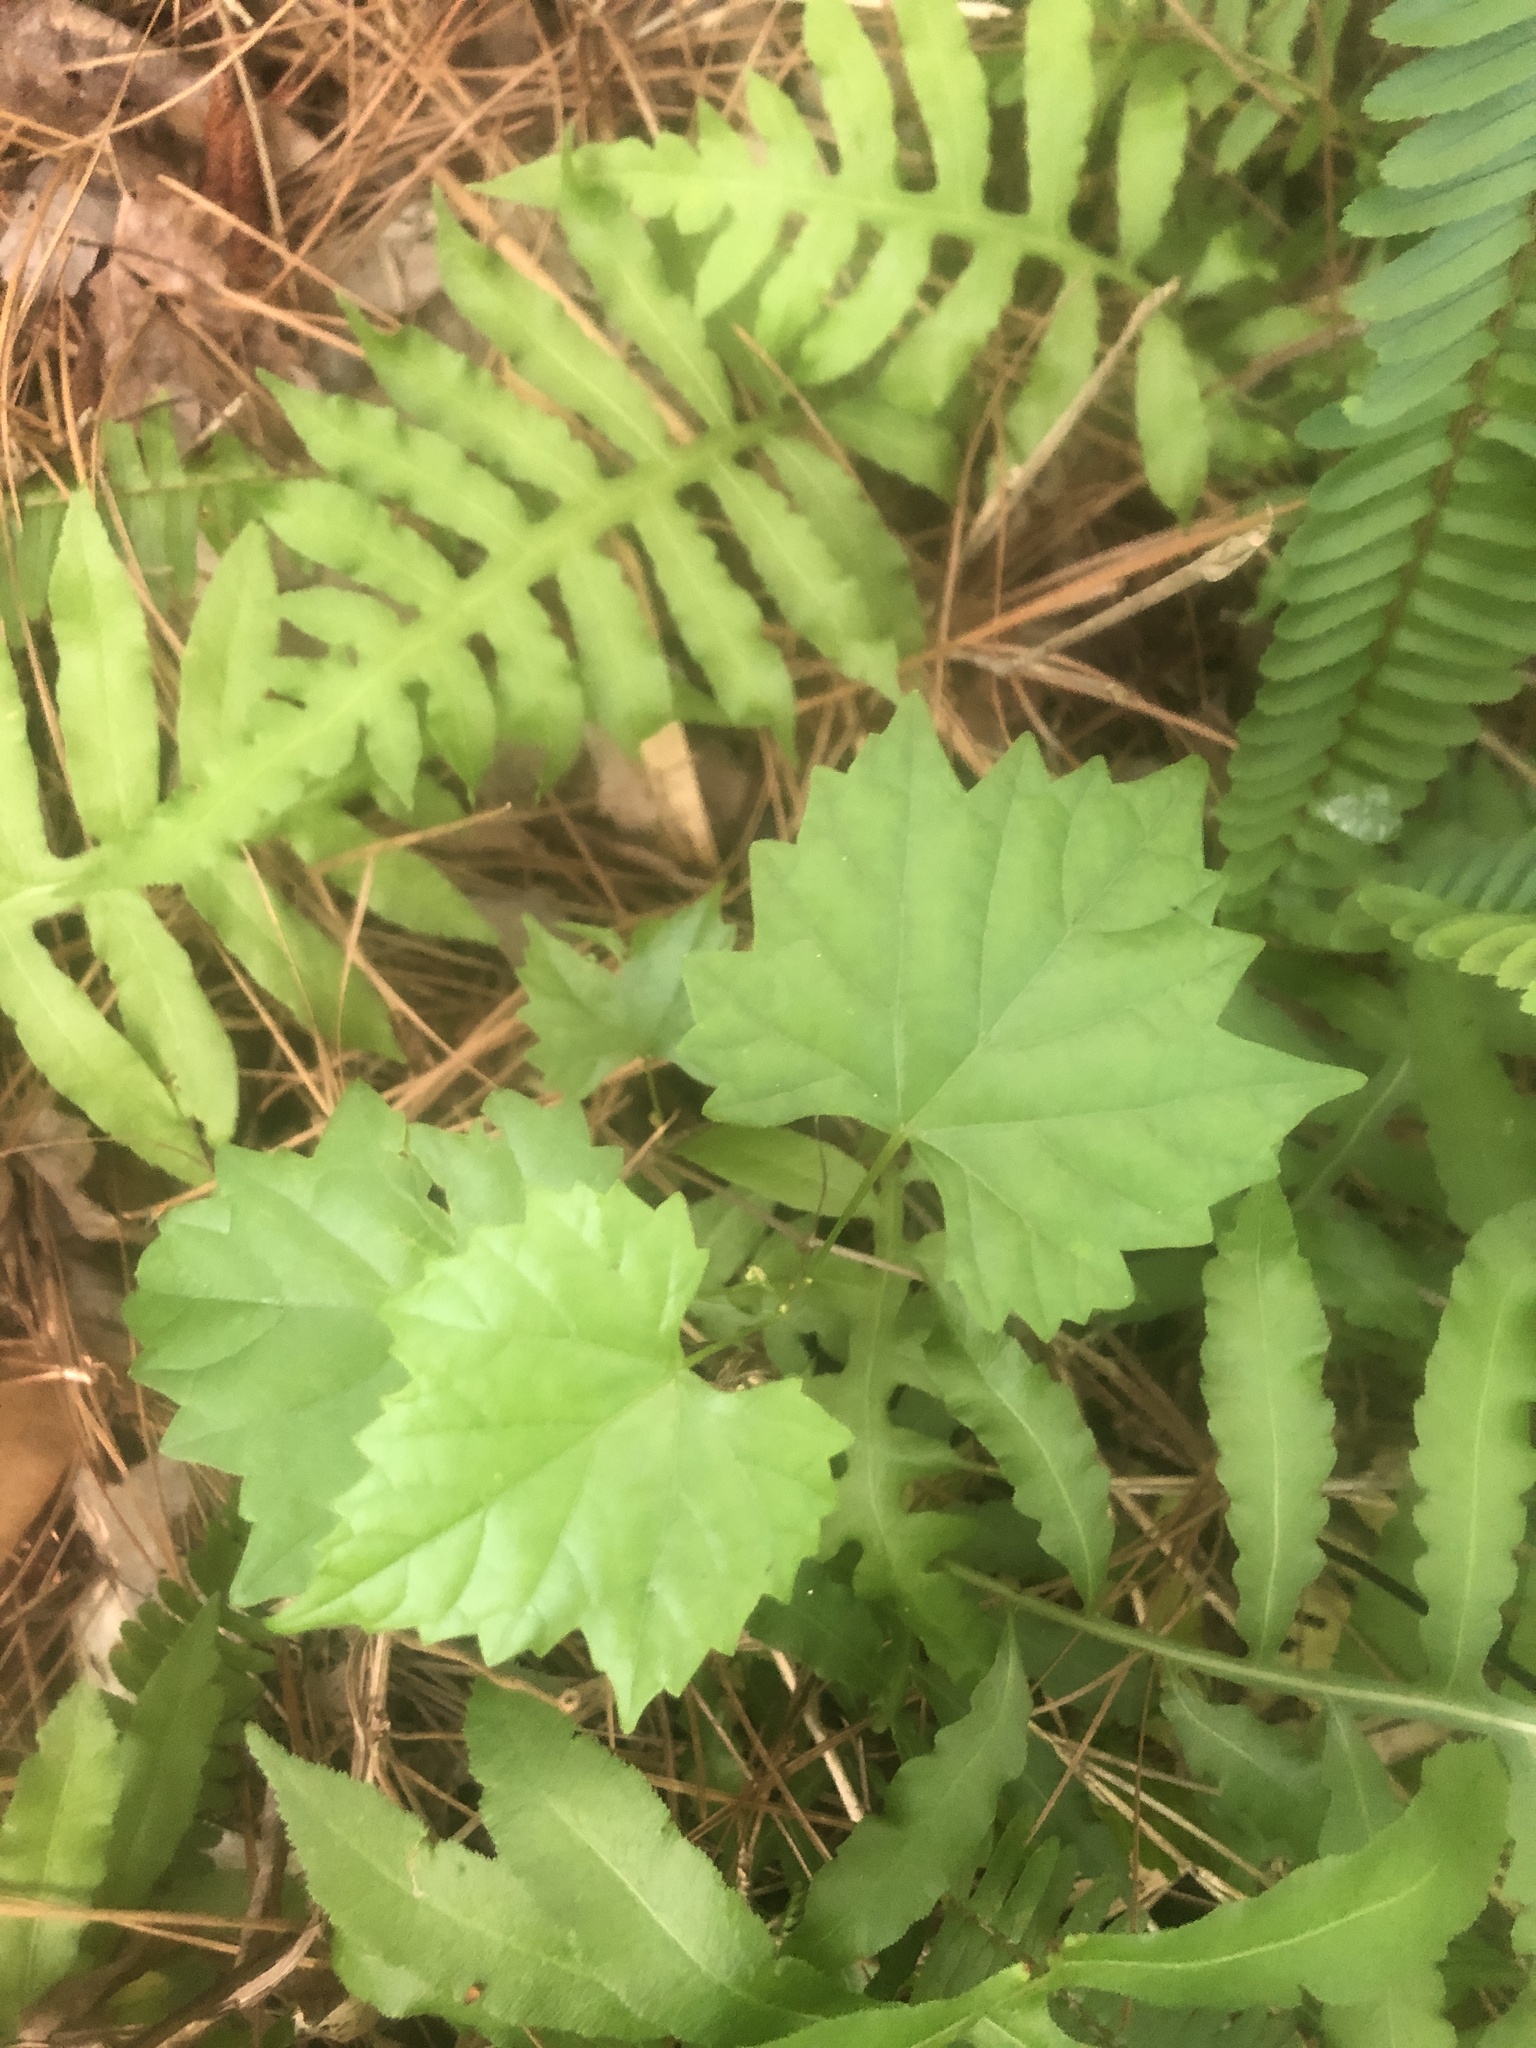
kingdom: Plantae
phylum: Tracheophyta
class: Magnoliopsida
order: Vitales
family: Vitaceae
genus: Vitis
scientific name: Vitis rotundifolia
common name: Muscadine grape
